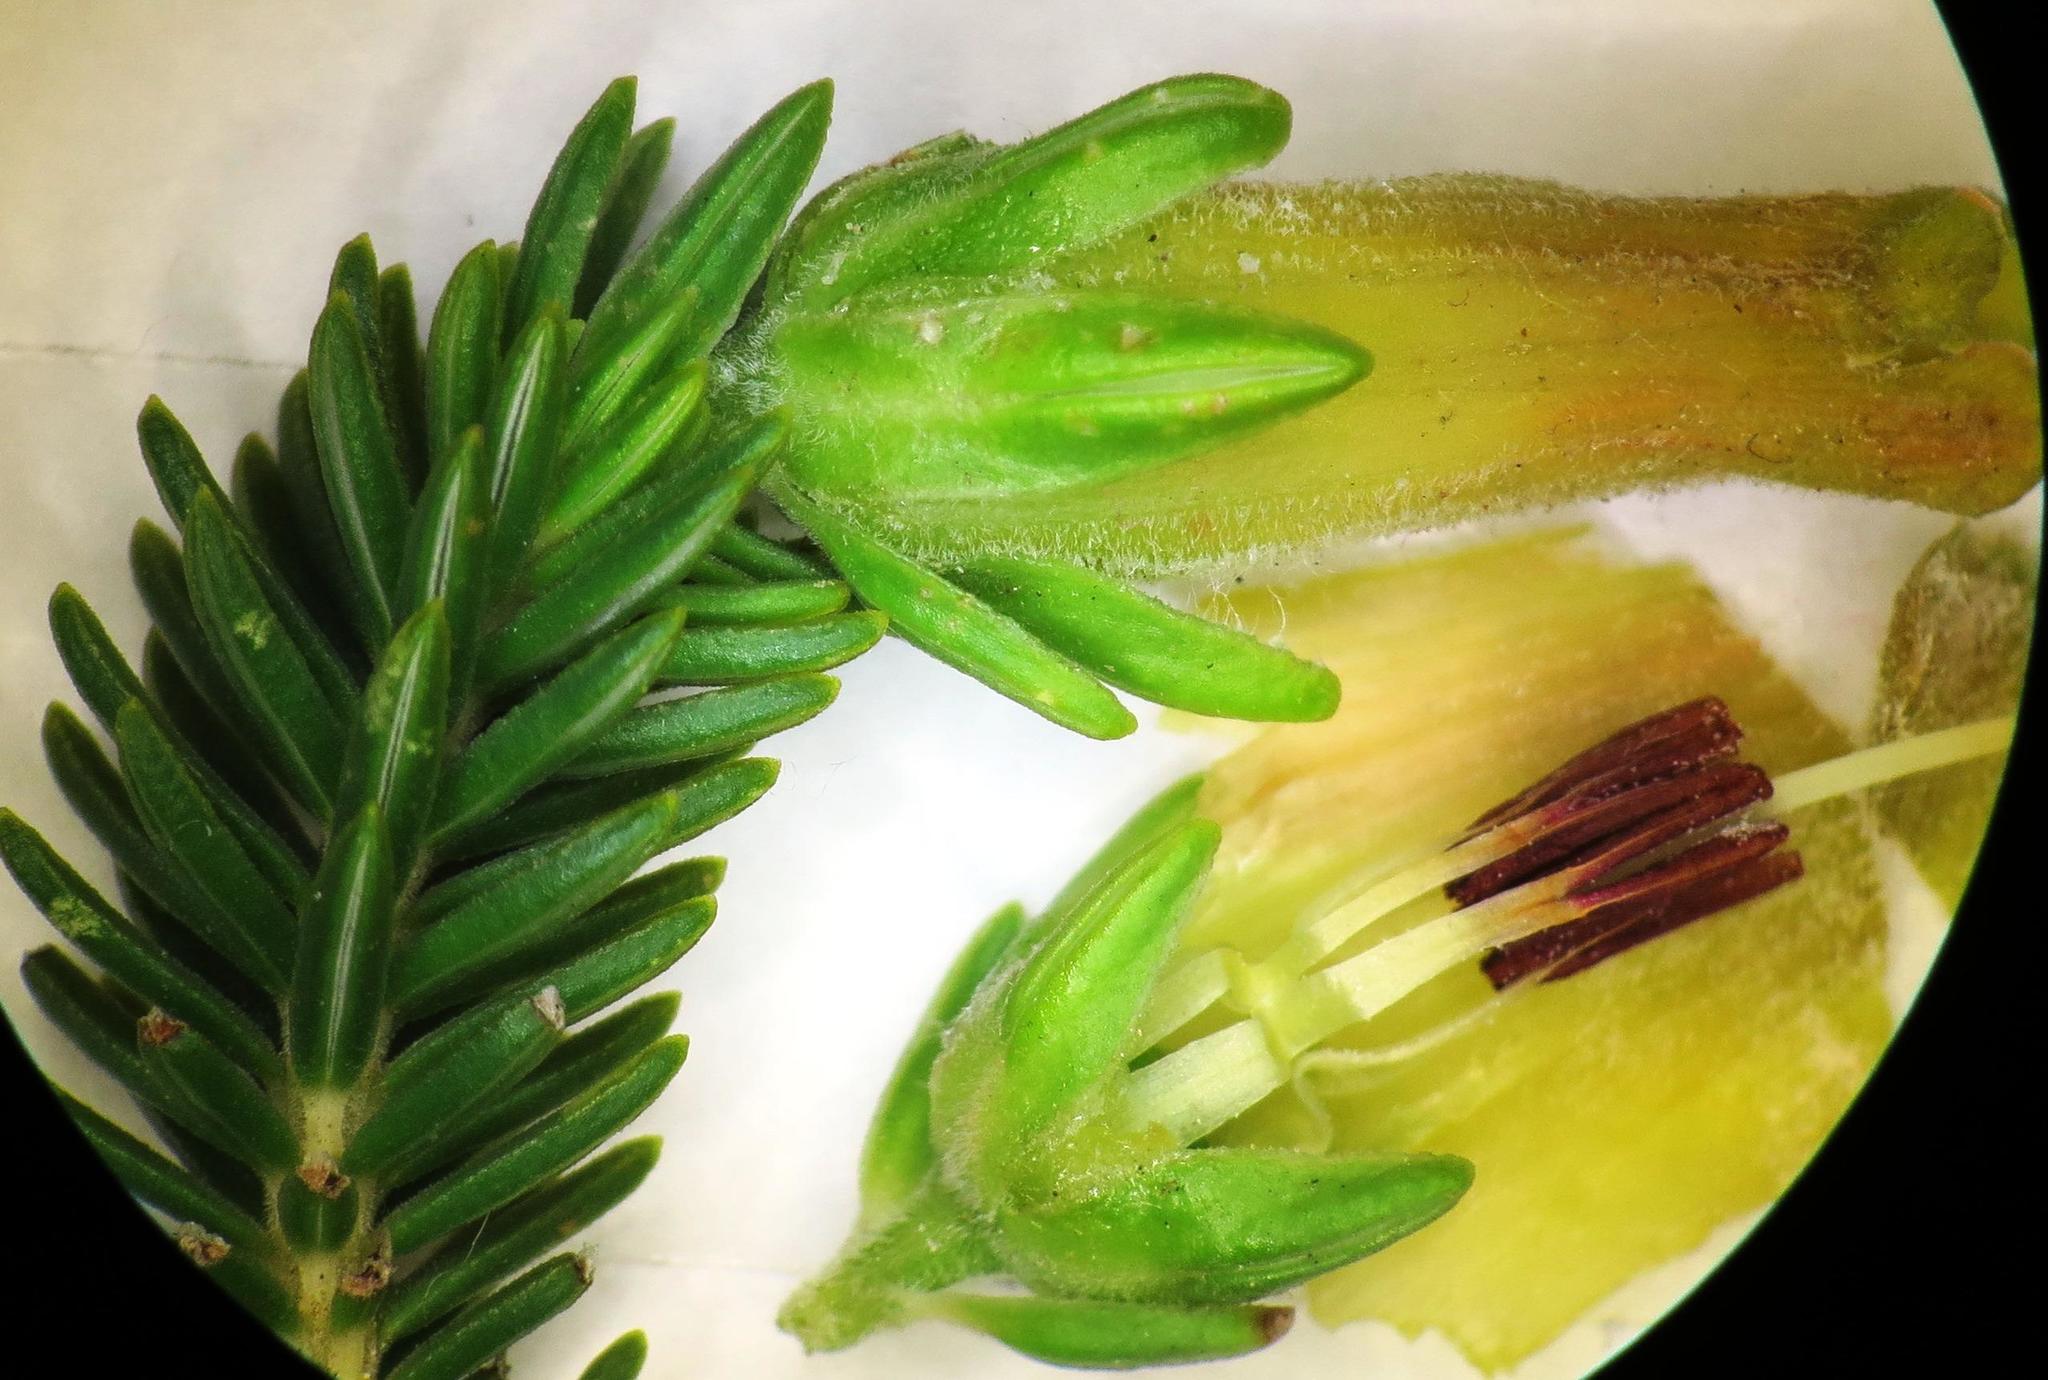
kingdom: Plantae
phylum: Tracheophyta
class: Magnoliopsida
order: Ericales
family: Ericaceae
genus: Erica
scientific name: Erica brachialis
